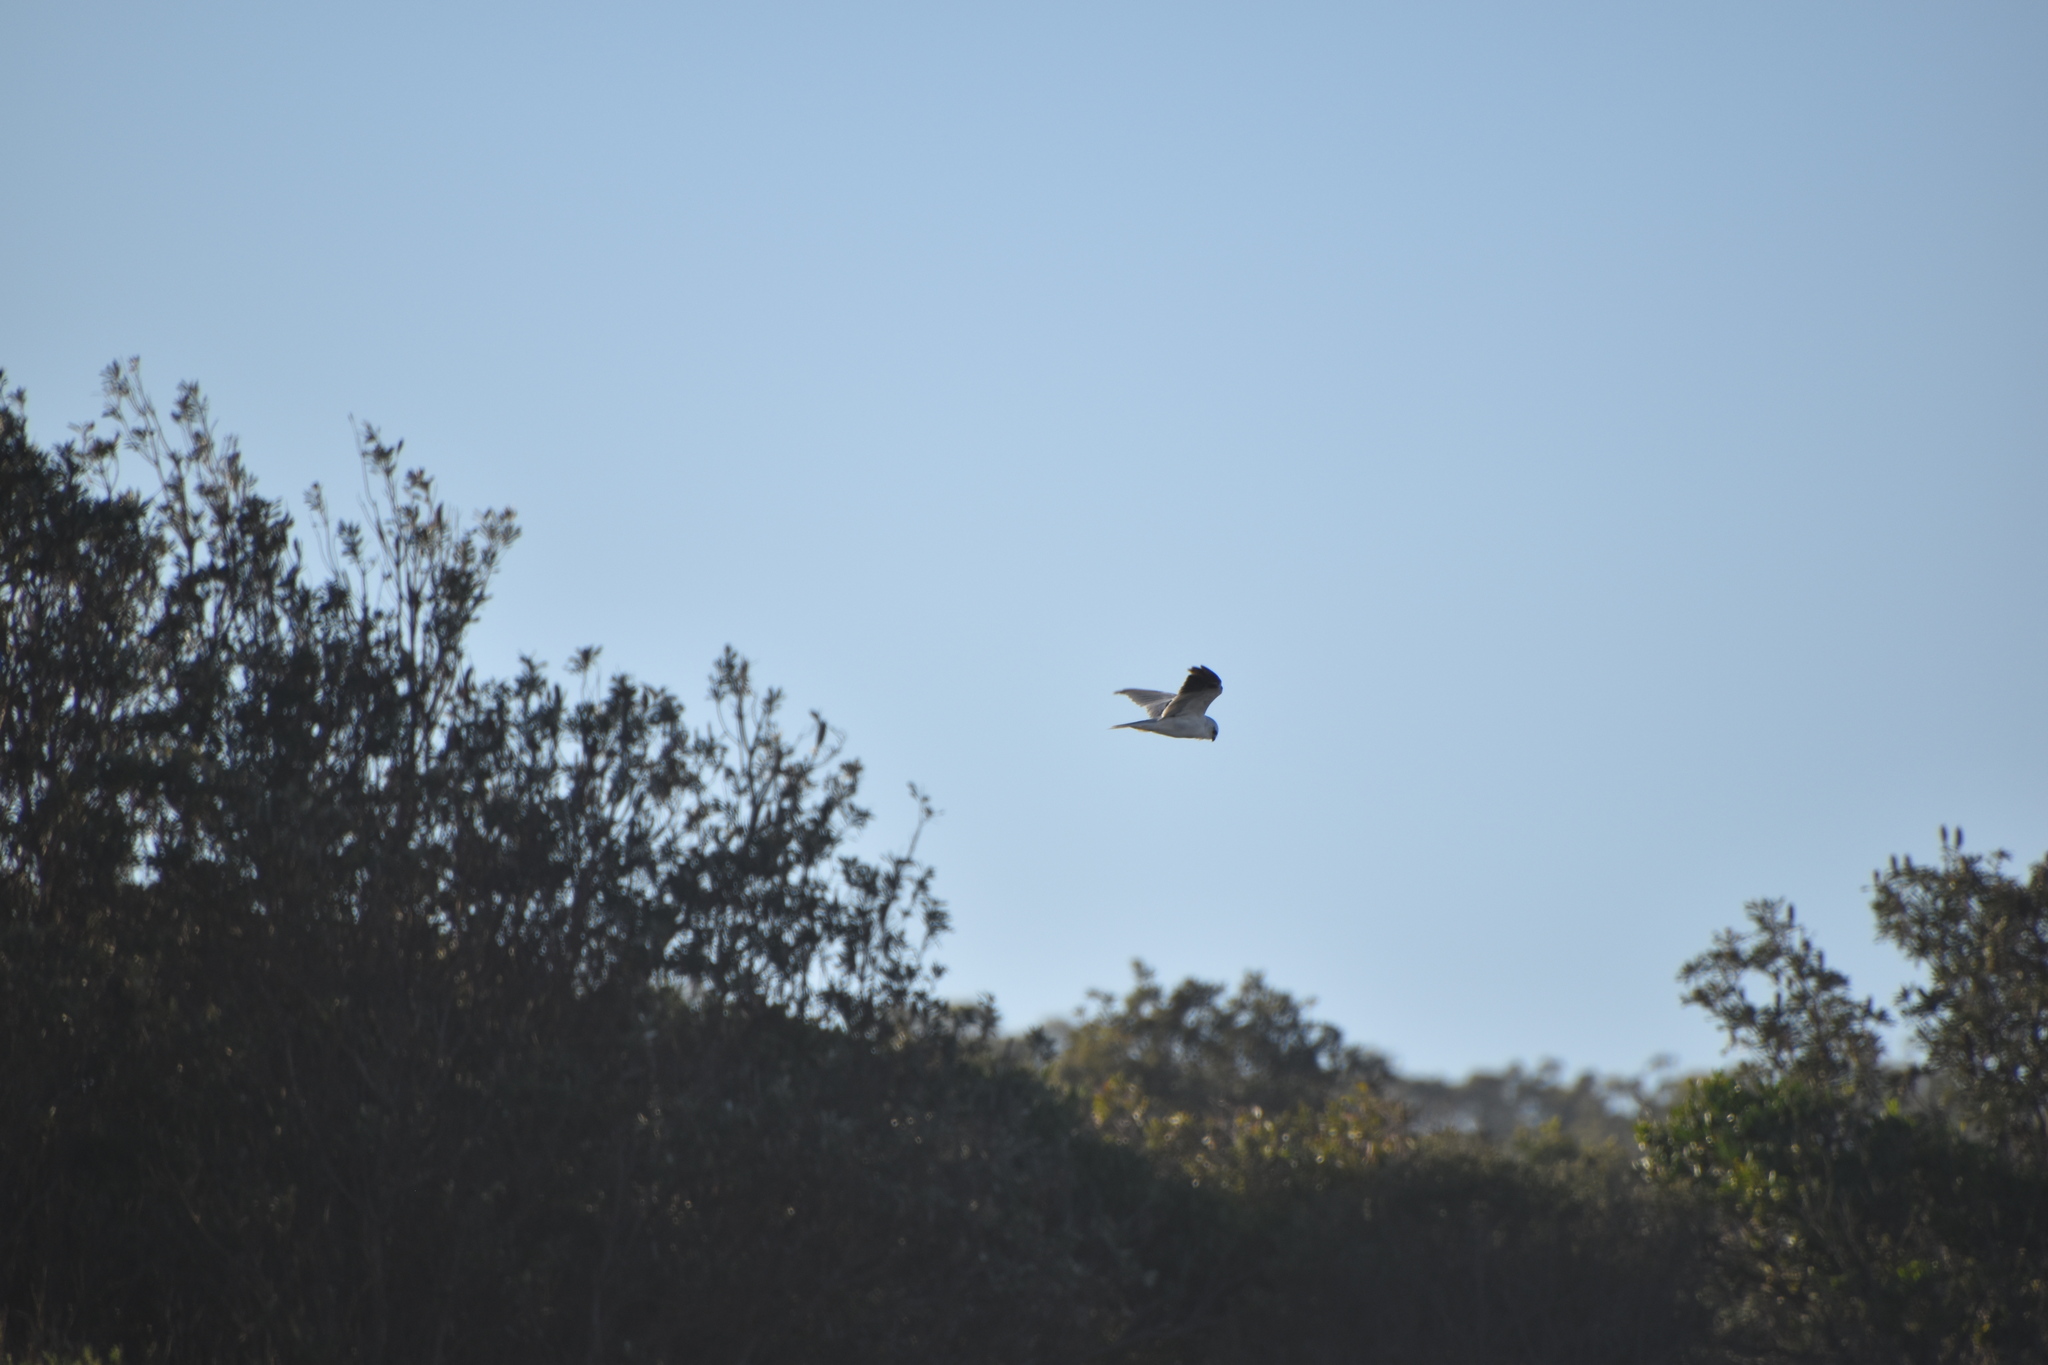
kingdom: Animalia
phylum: Chordata
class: Aves
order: Accipitriformes
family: Accipitridae
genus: Elanus
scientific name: Elanus axillaris
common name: Black-shouldered kite
